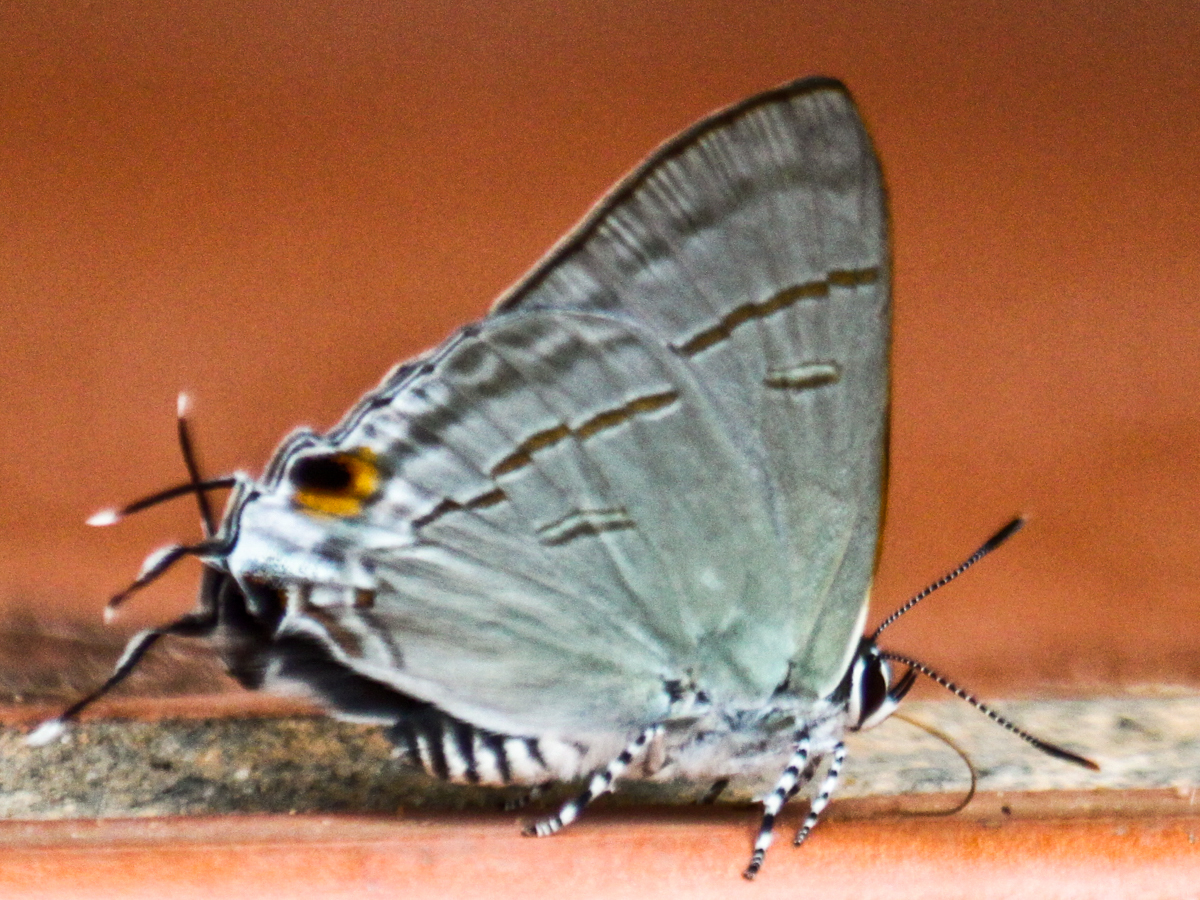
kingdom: Animalia
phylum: Arthropoda
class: Insecta
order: Lepidoptera
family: Lycaenidae
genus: Hypolycaena
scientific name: Hypolycaena erylus
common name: Common tit
